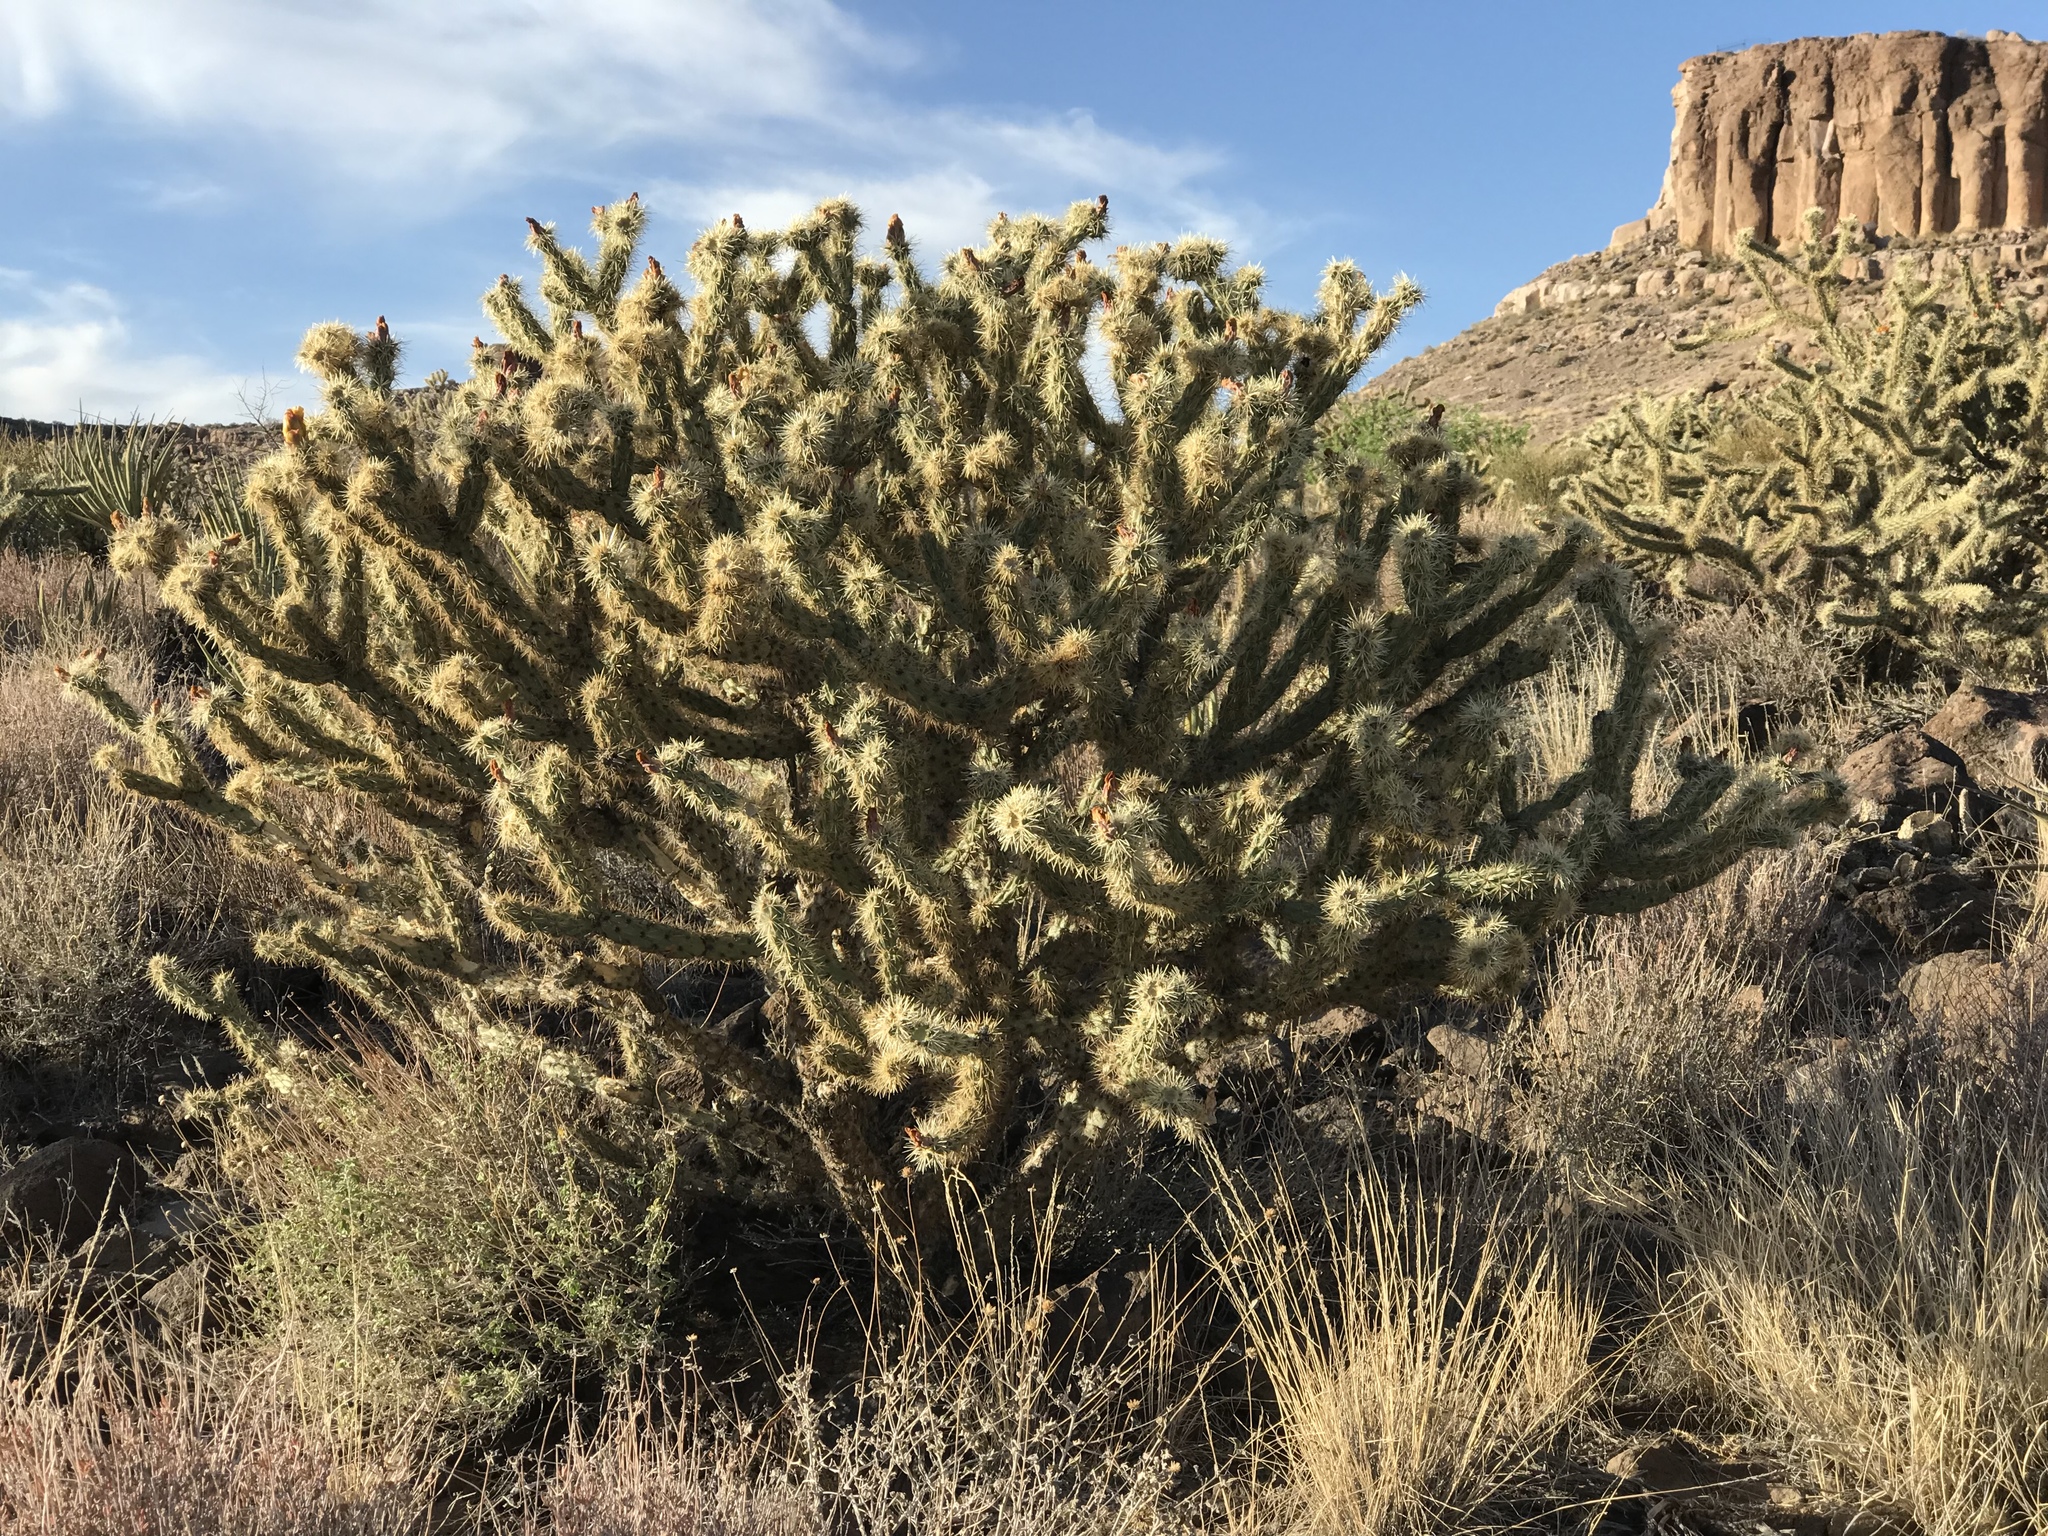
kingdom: Plantae
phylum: Tracheophyta
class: Magnoliopsida
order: Caryophyllales
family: Cactaceae
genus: Cylindropuntia
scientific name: Cylindropuntia acanthocarpa
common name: Buckhorn cholla
